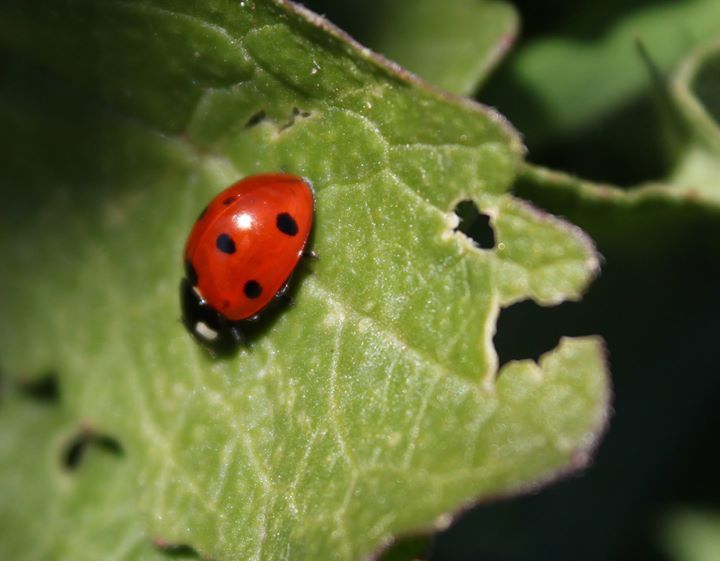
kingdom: Animalia
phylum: Arthropoda
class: Insecta
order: Coleoptera
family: Coccinellidae
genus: Coccinella
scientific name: Coccinella septempunctata
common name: Sevenspotted lady beetle
